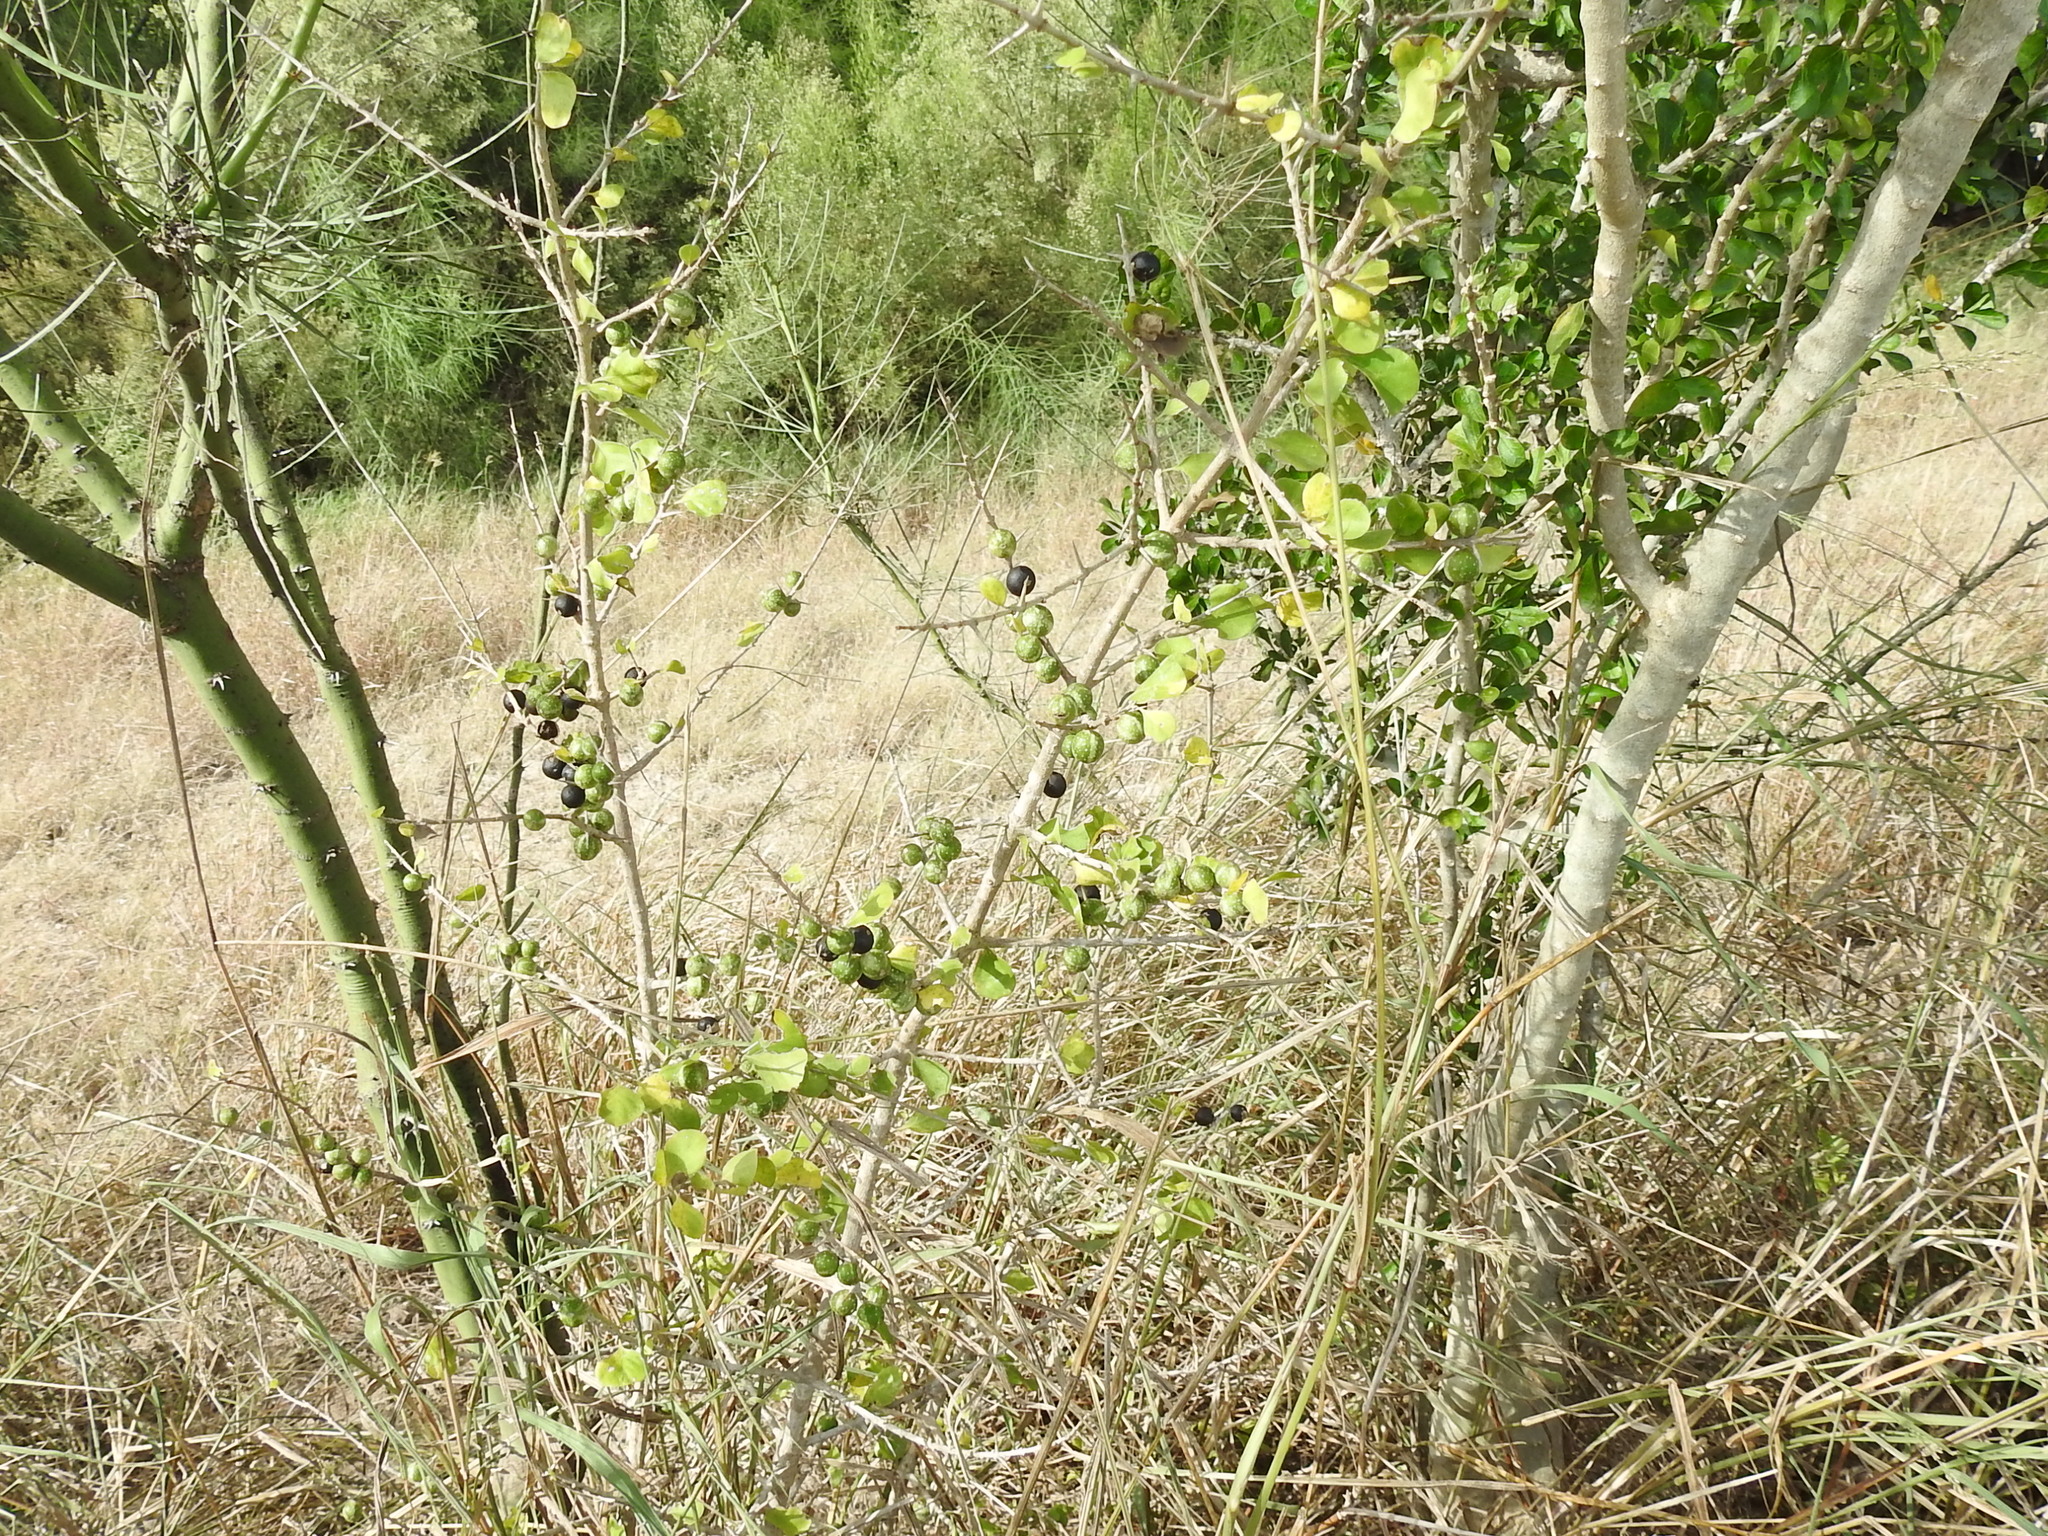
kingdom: Plantae
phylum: Tracheophyta
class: Magnoliopsida
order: Gentianales
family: Rubiaceae
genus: Randia
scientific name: Randia obcordata
